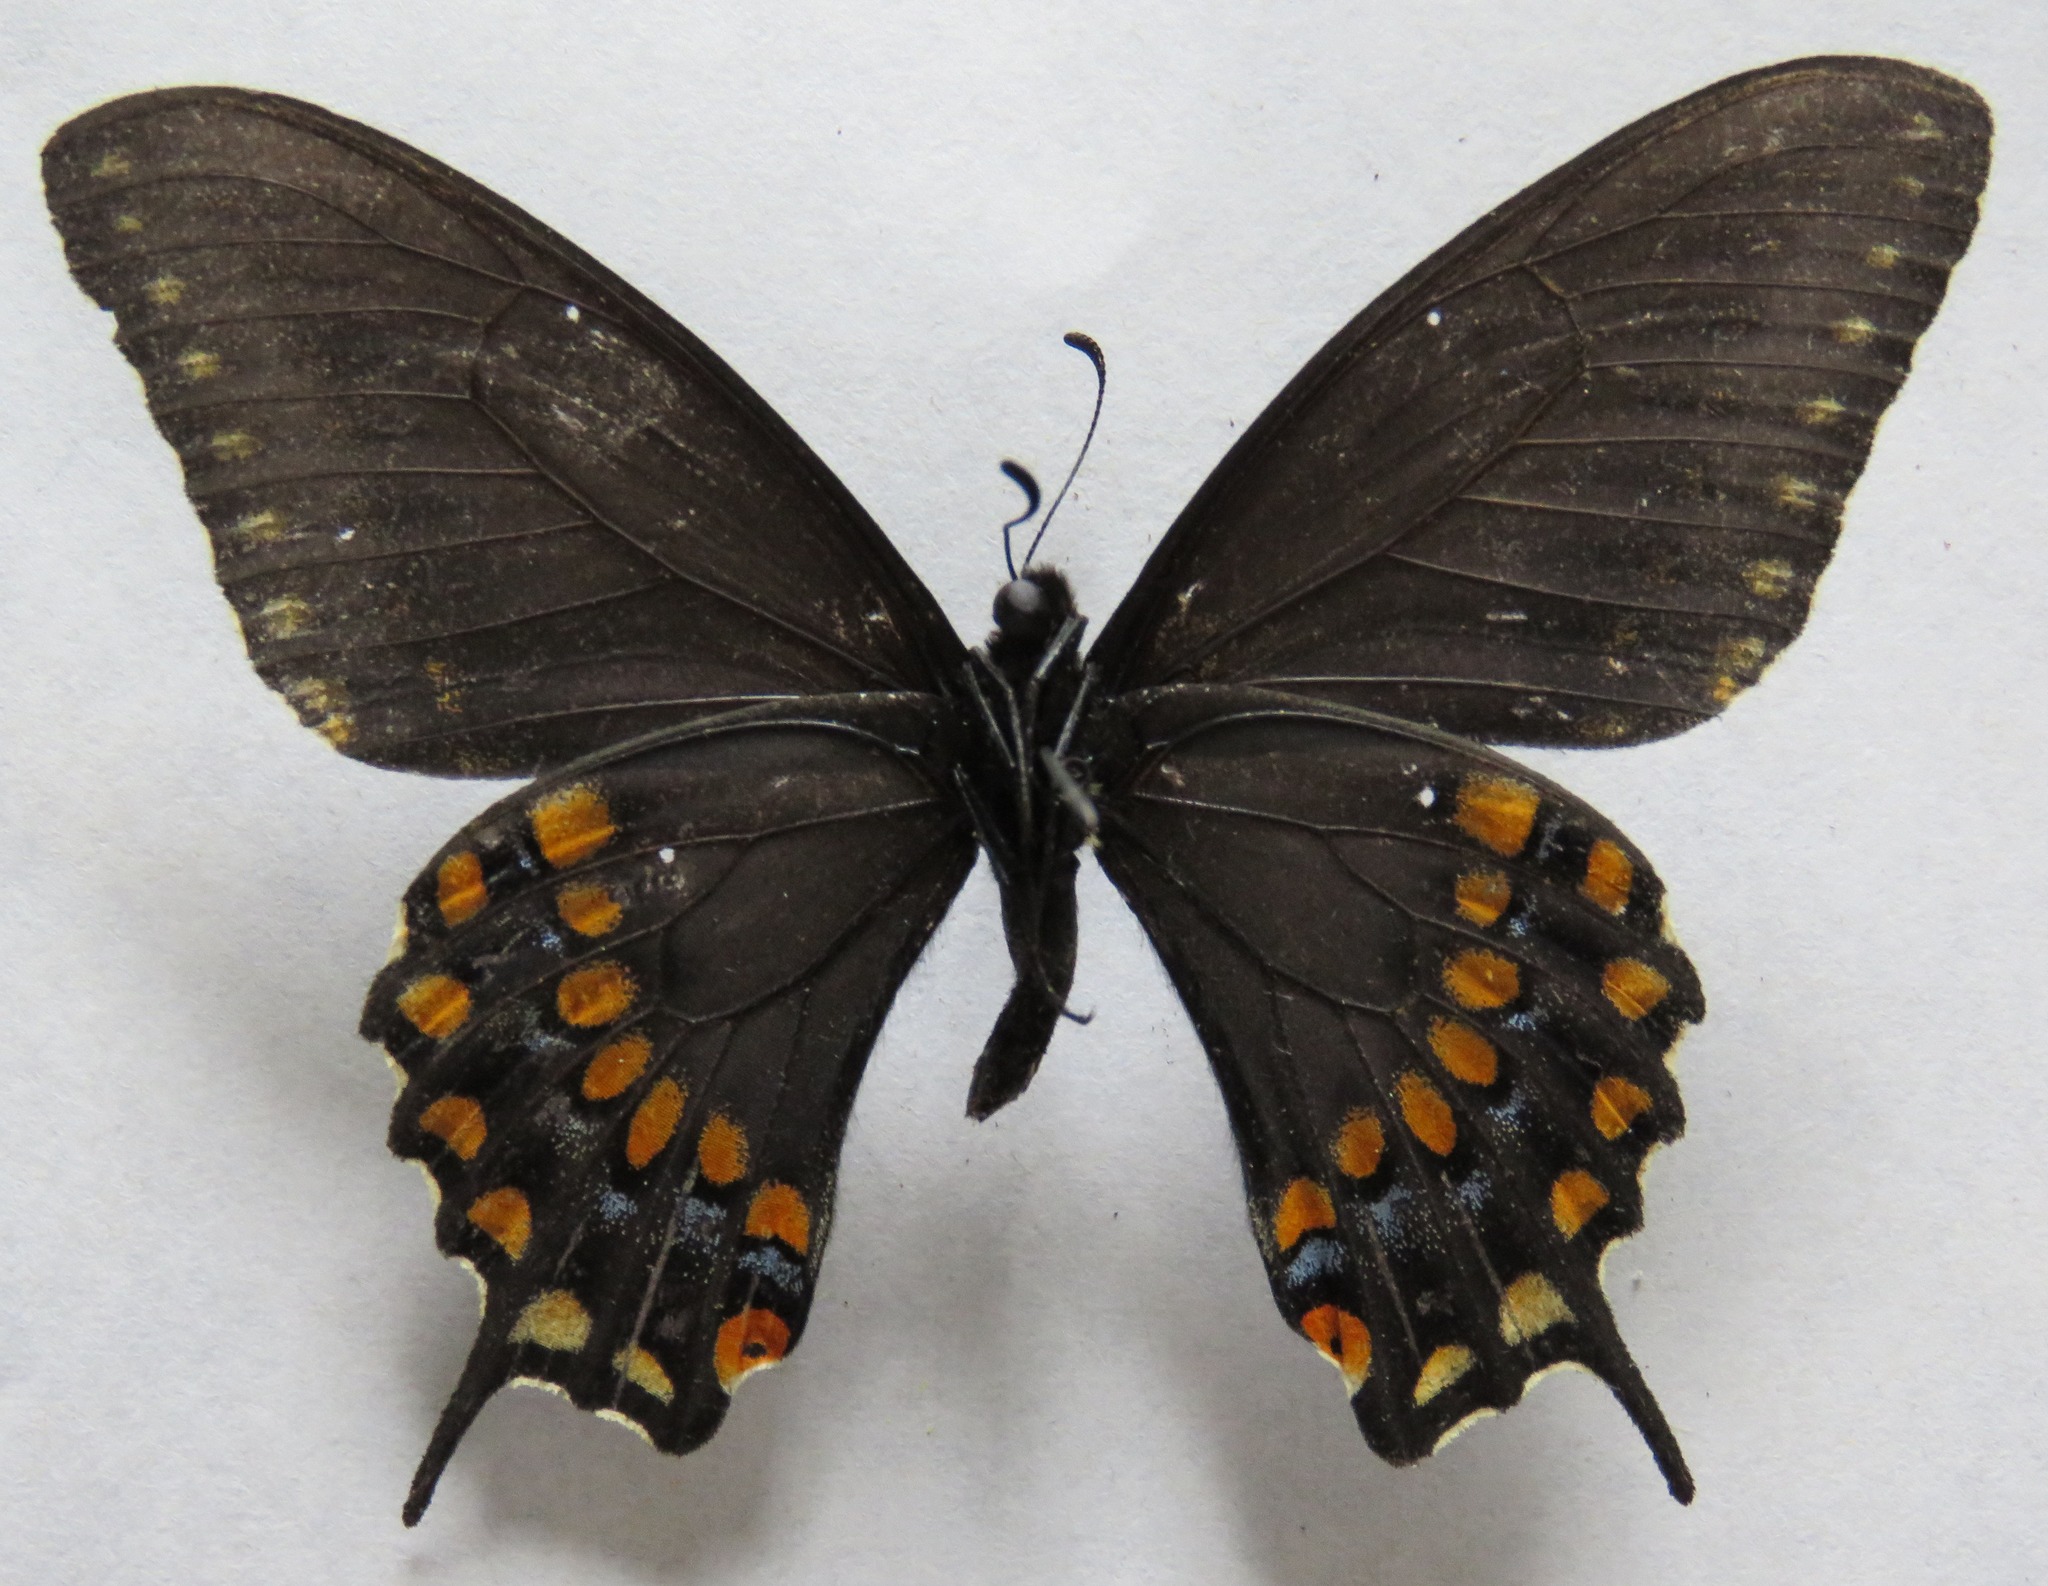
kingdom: Animalia
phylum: Arthropoda
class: Insecta
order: Lepidoptera
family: Papilionidae
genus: Papilio
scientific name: Papilio polyxenes
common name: Black swallowtail
